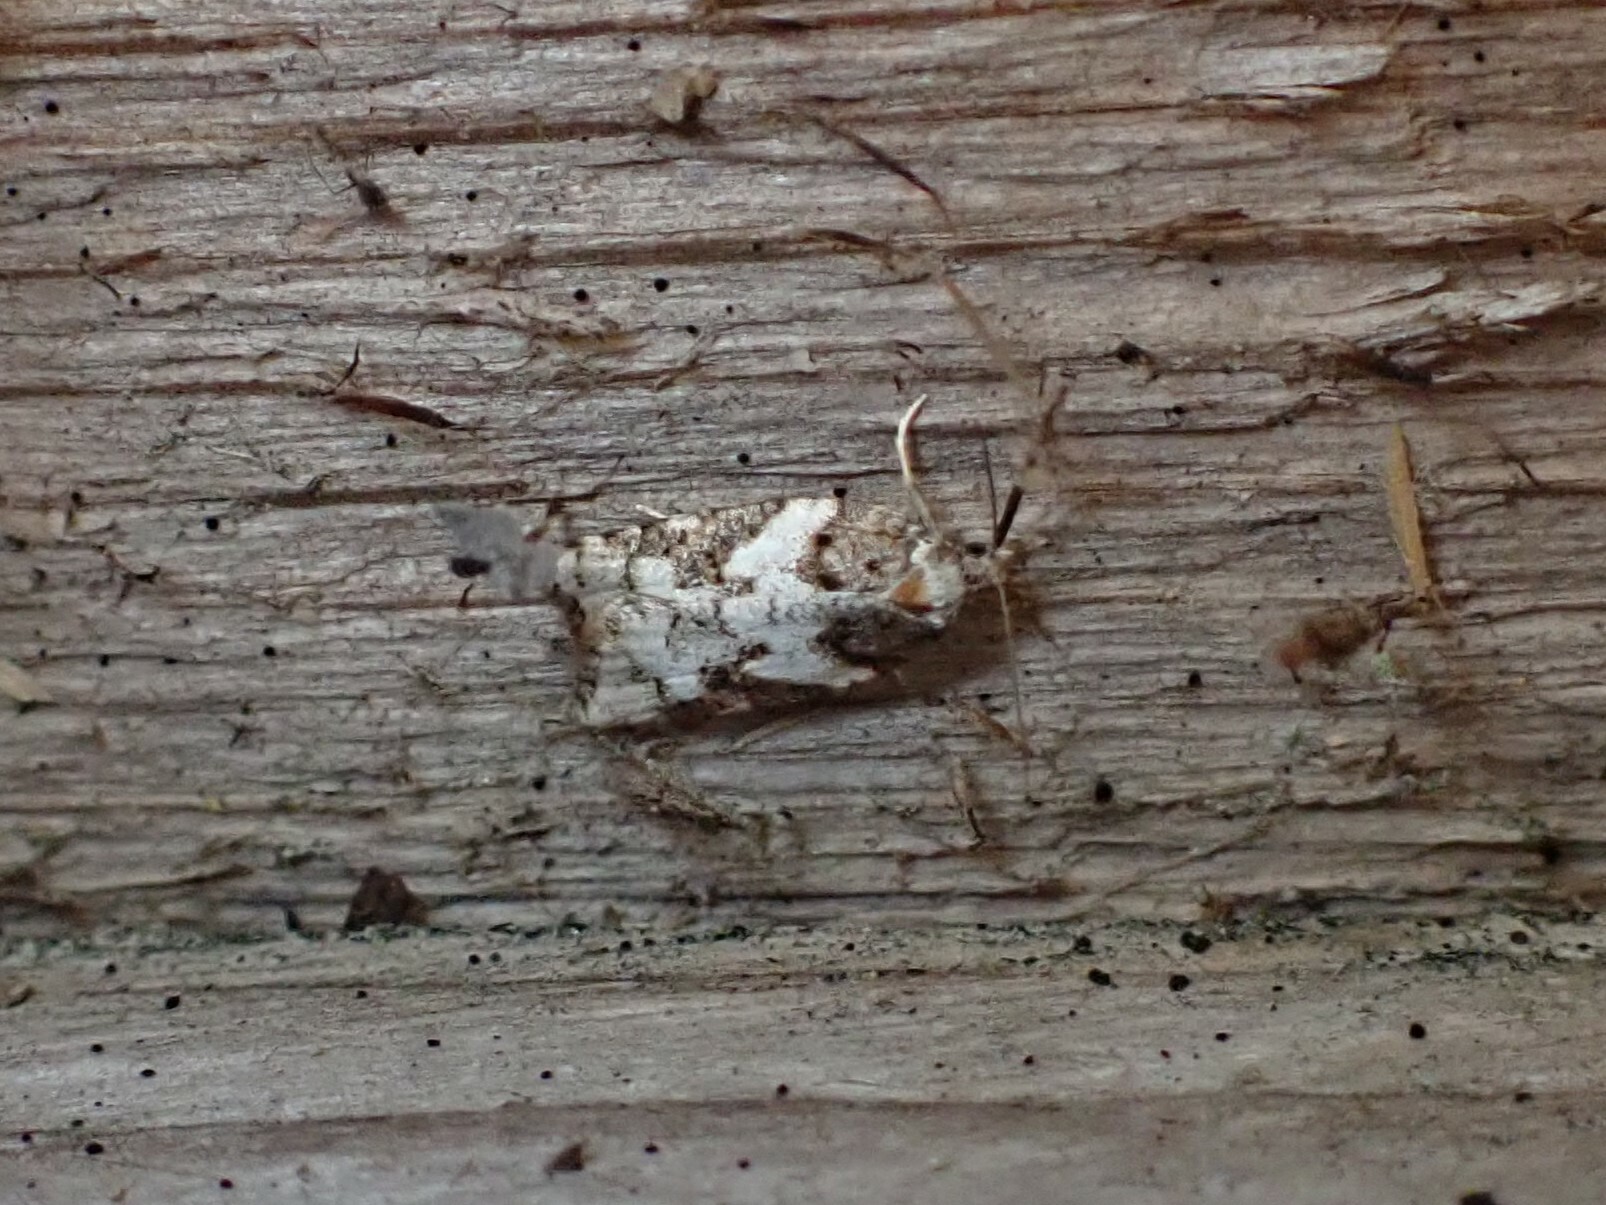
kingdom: Animalia
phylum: Arthropoda
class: Insecta
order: Lepidoptera
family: Tortricidae
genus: Acleris
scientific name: Acleris gloveranus
